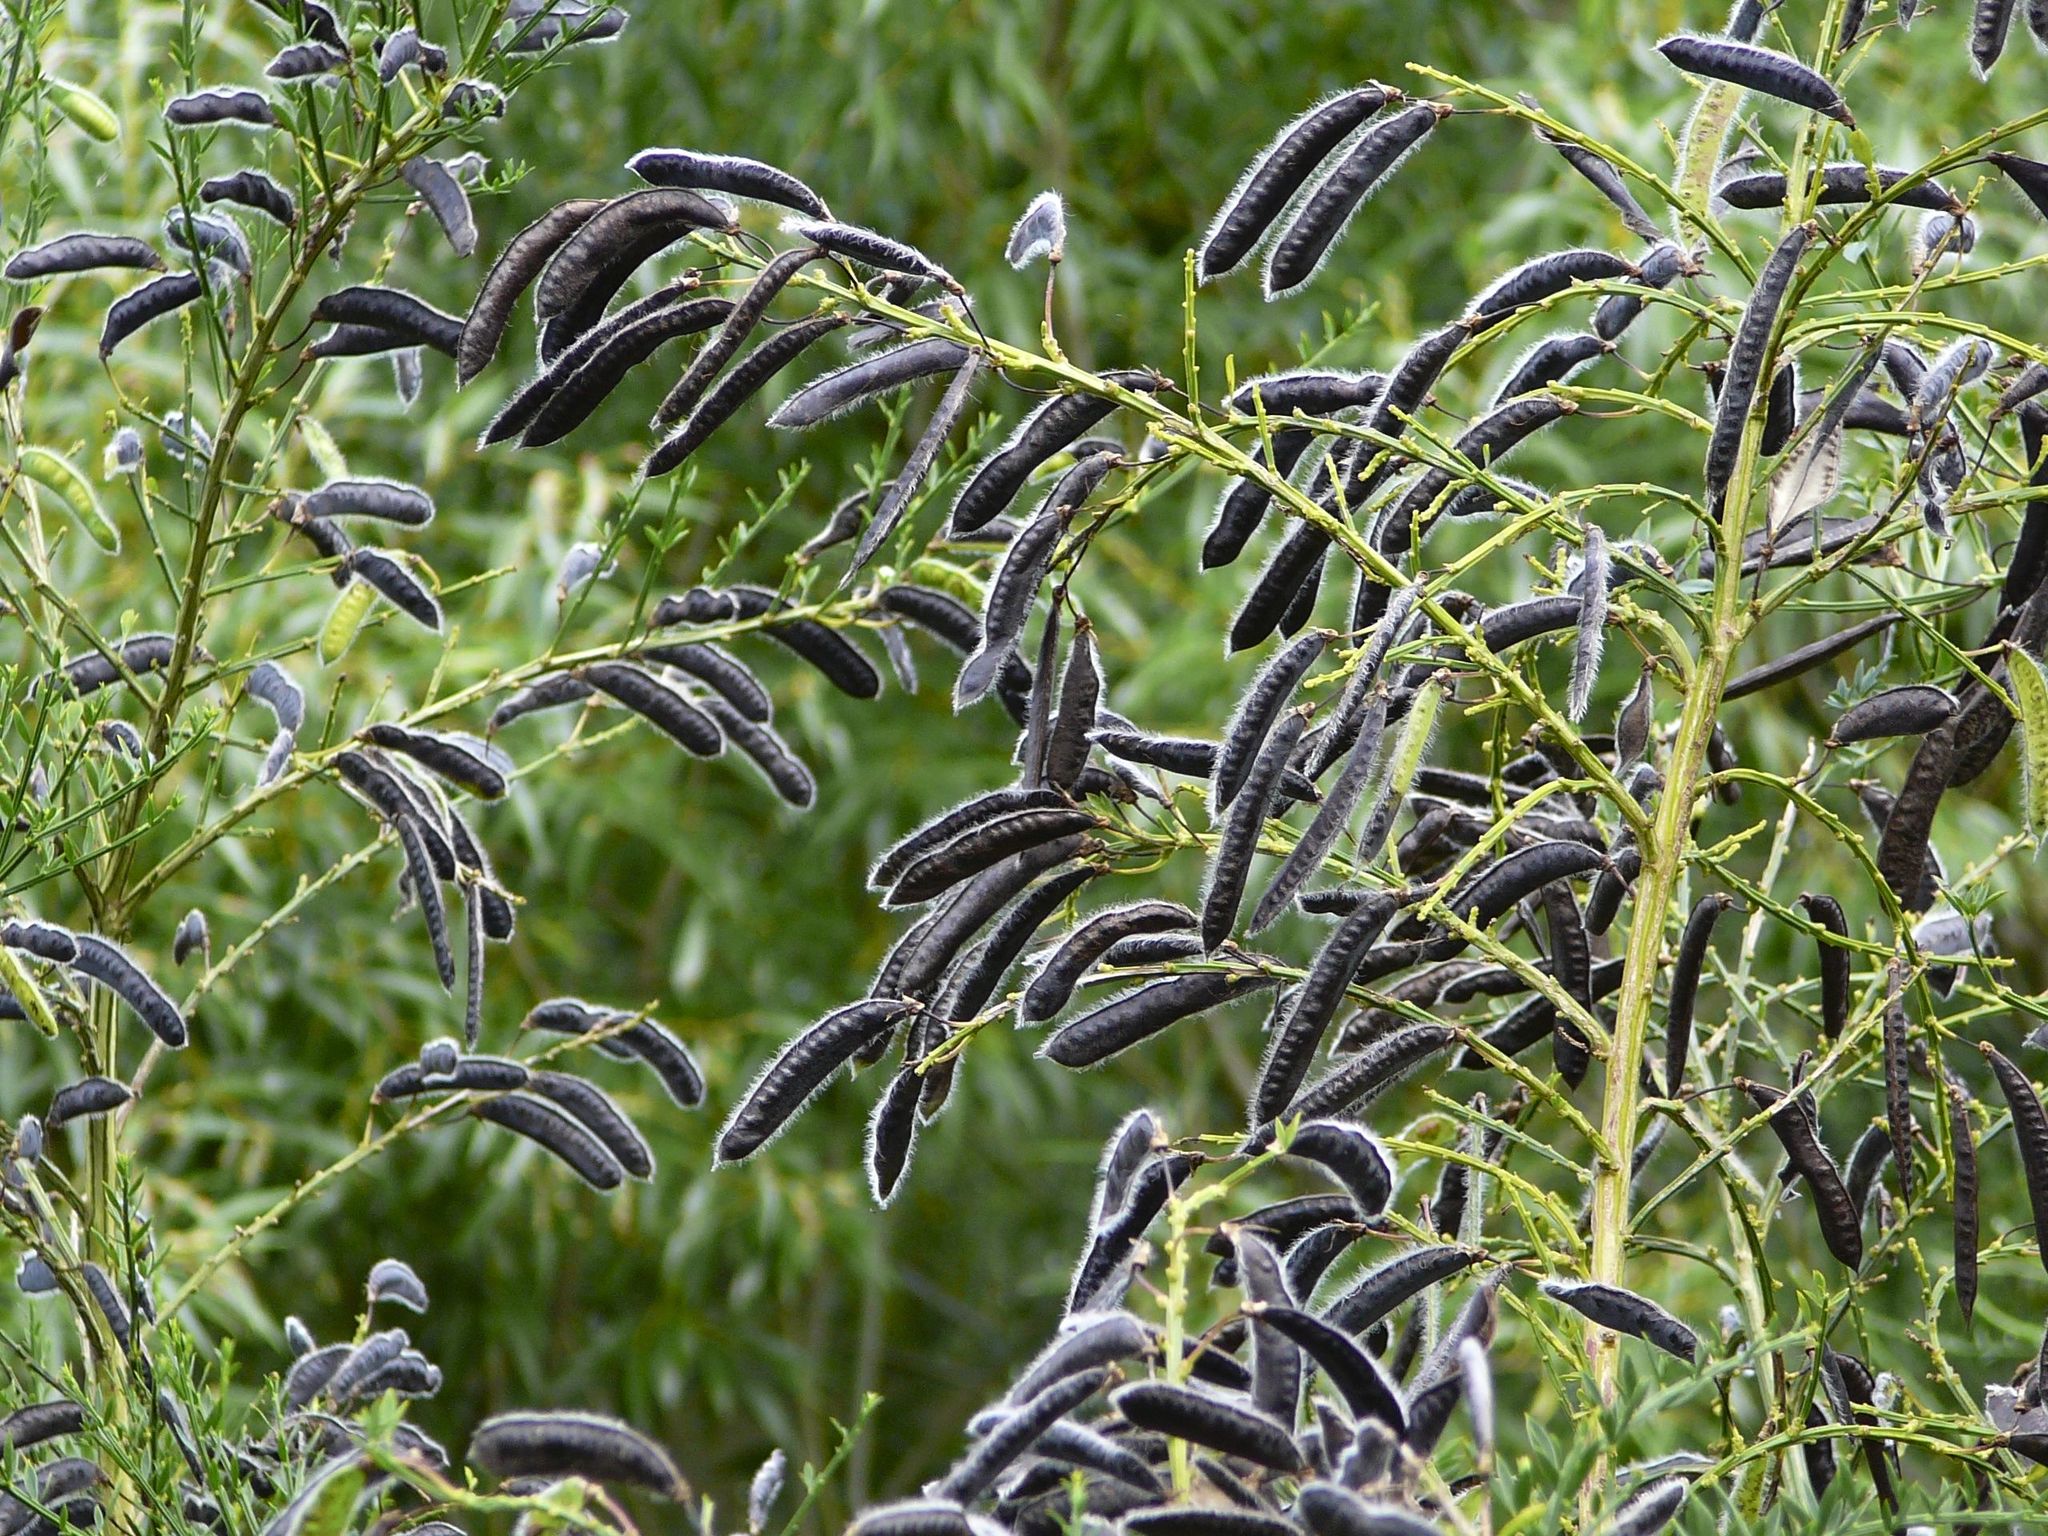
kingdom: Plantae
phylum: Tracheophyta
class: Magnoliopsida
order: Fabales
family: Fabaceae
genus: Cytisus
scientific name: Cytisus scoparius
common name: Scotch broom
